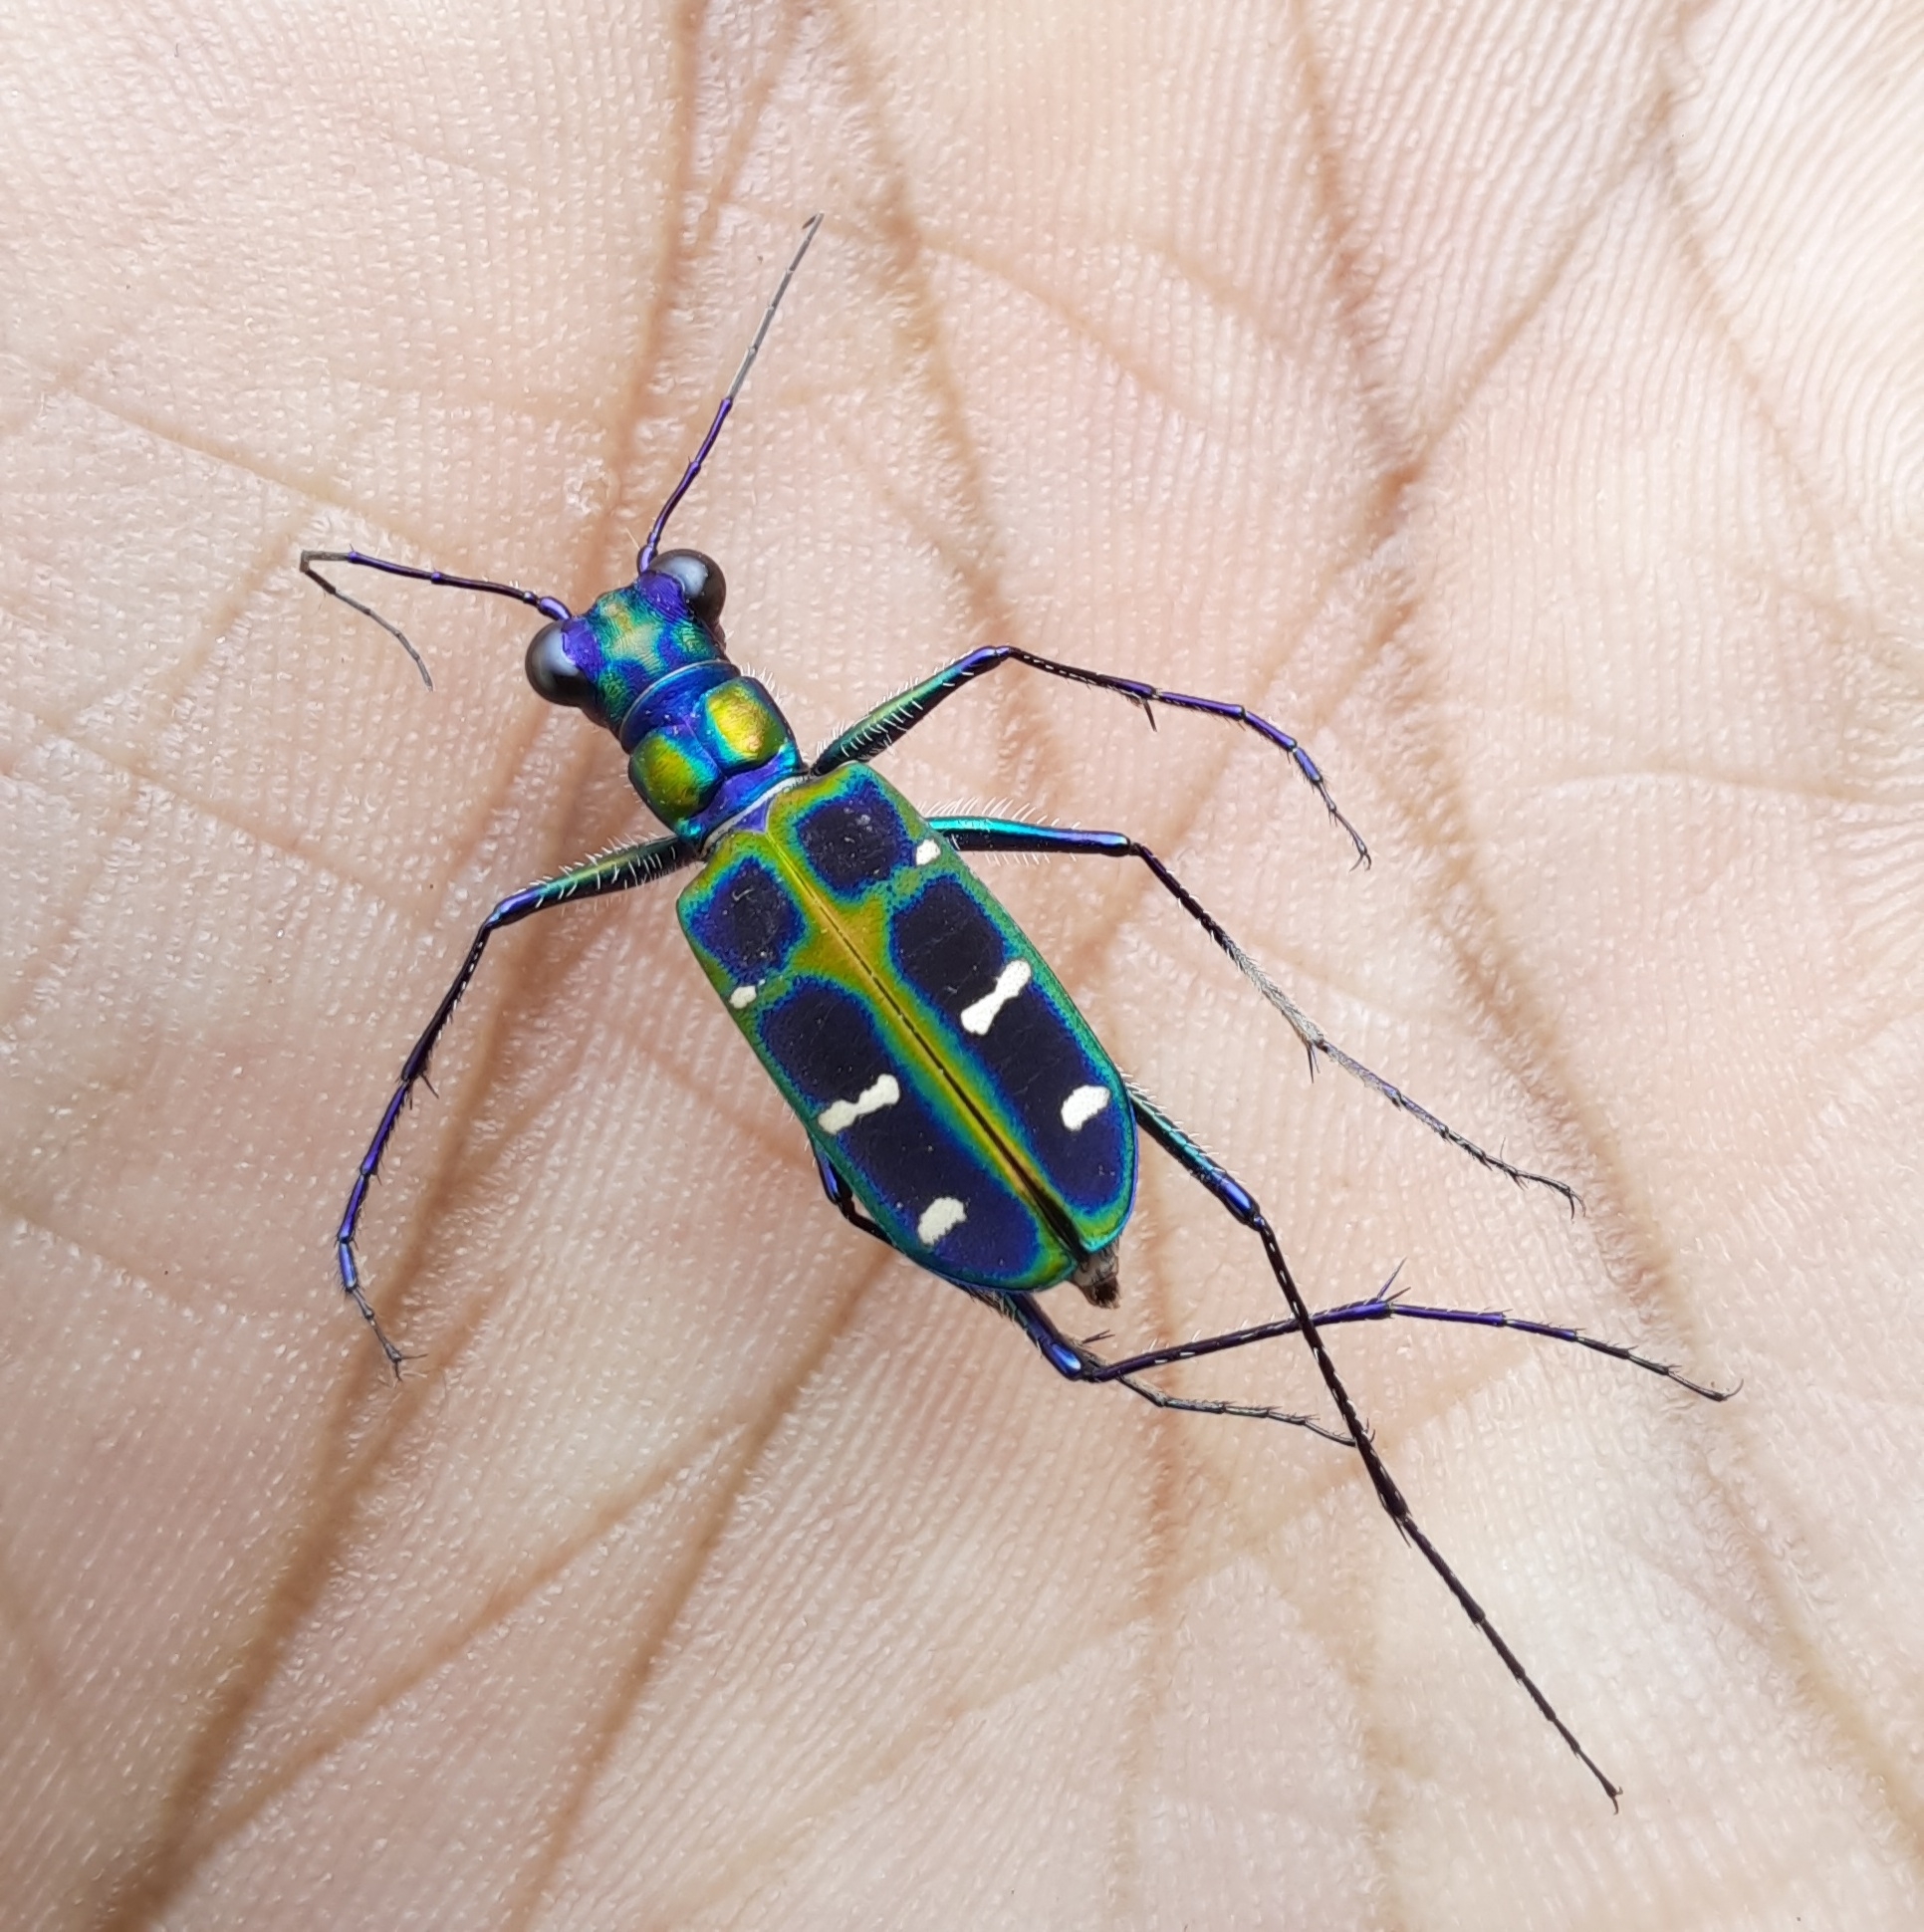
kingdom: Animalia
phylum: Arthropoda
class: Insecta
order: Coleoptera
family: Carabidae
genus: Cicindela
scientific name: Cicindela barmanica
